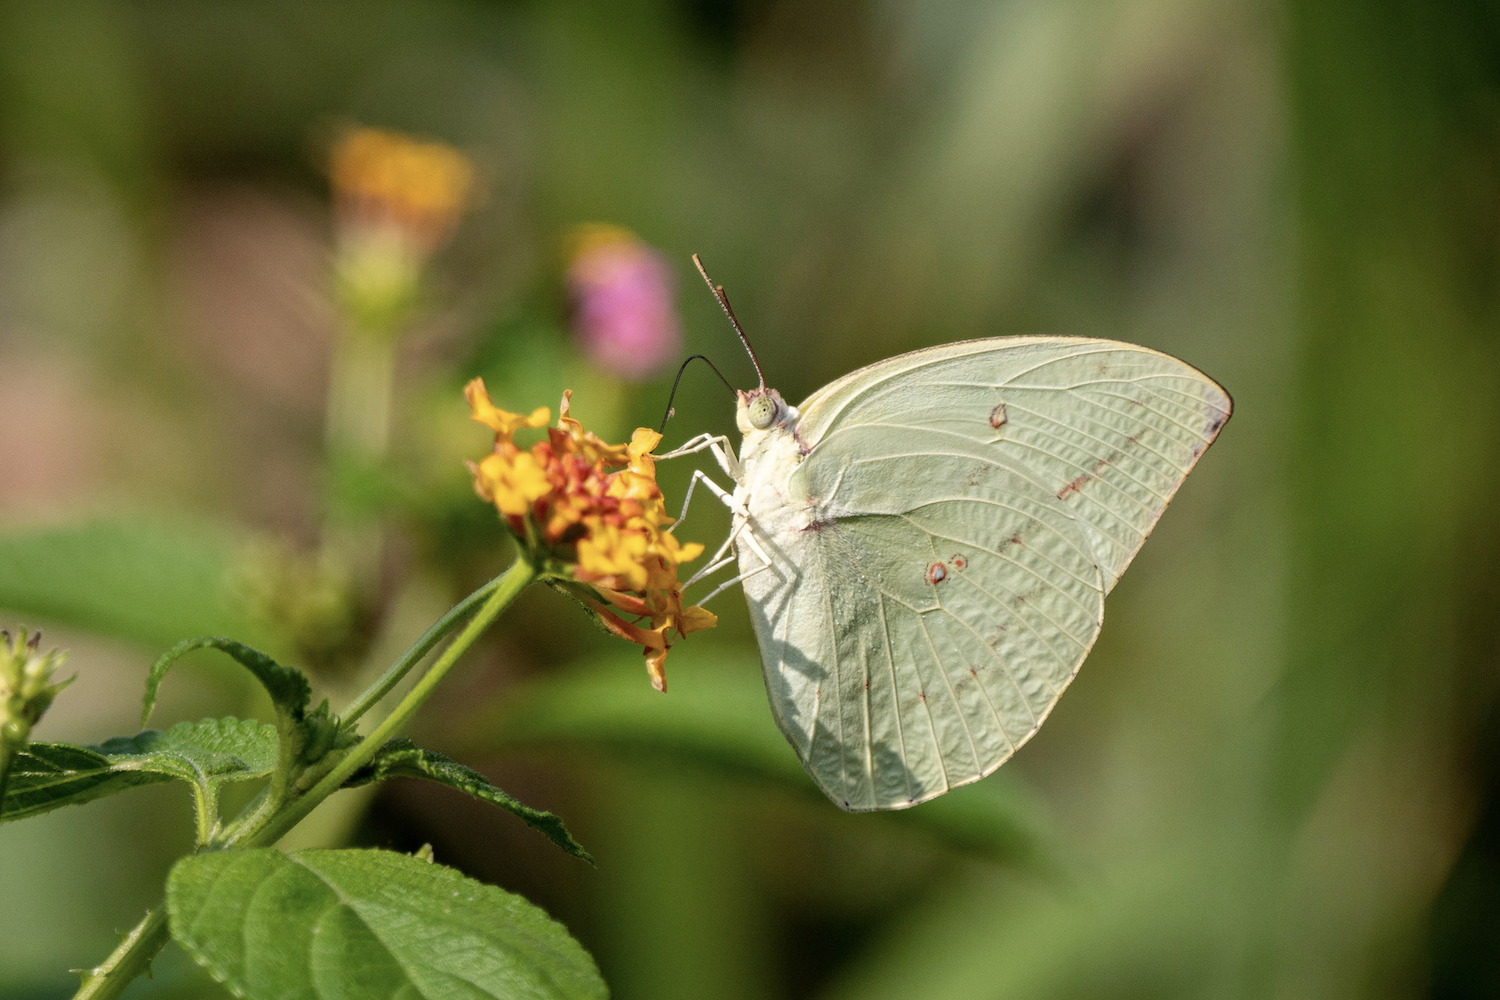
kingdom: Animalia
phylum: Arthropoda
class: Insecta
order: Lepidoptera
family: Pieridae
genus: Catopsilia
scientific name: Catopsilia pomona
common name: Common emigrant
